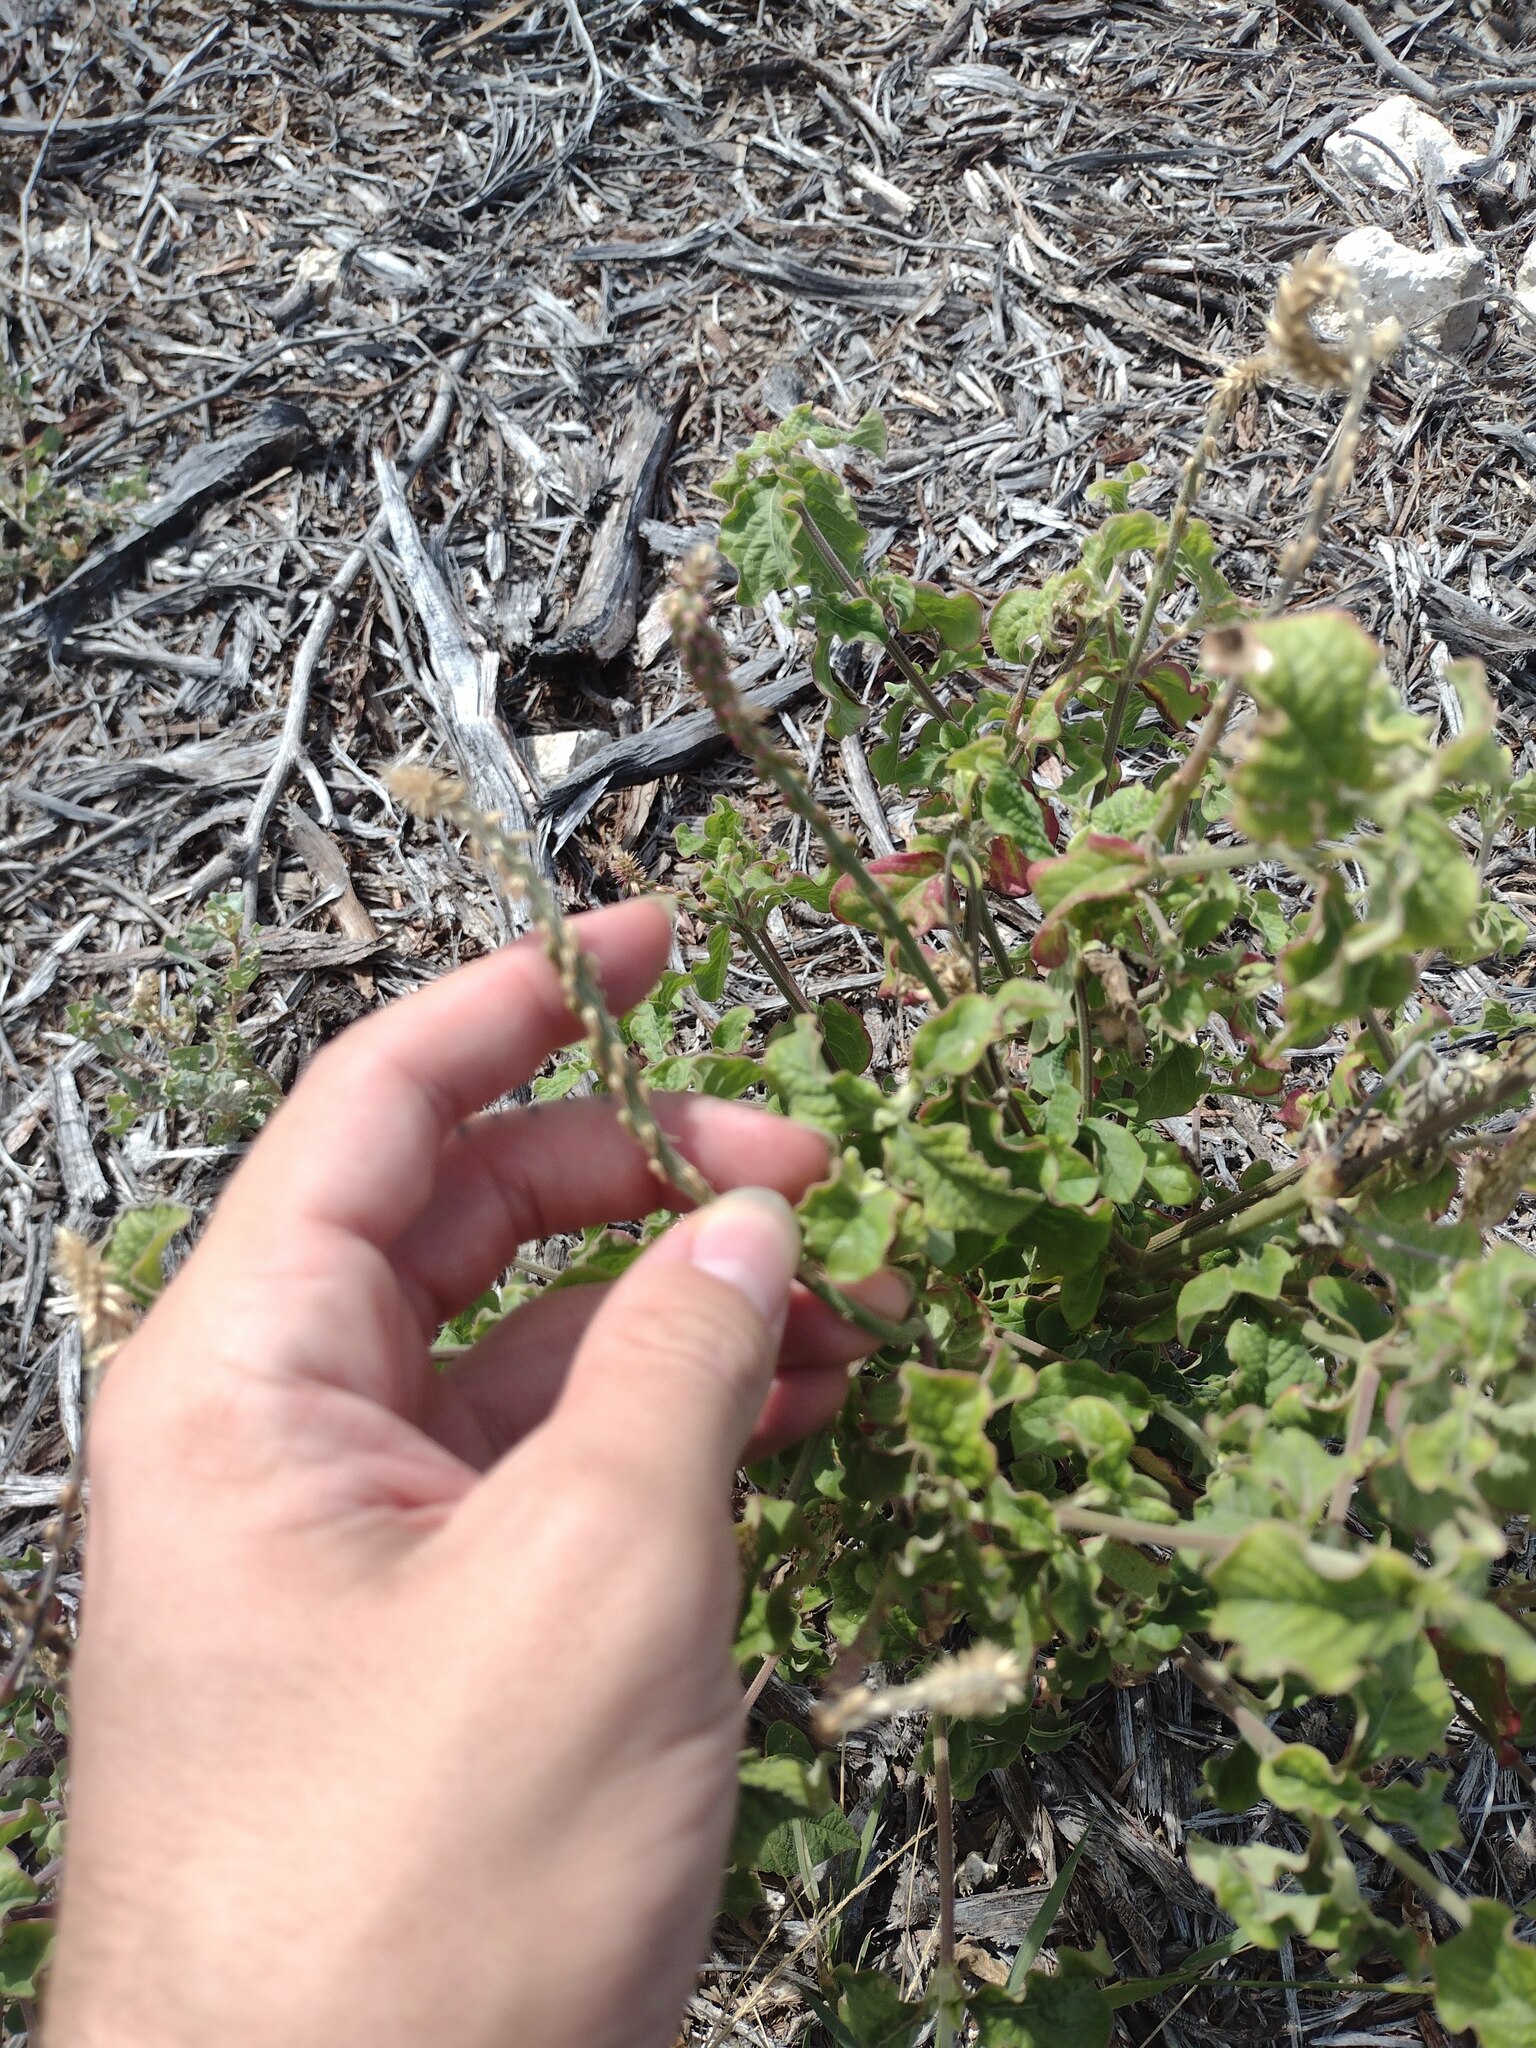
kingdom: Plantae
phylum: Tracheophyta
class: Magnoliopsida
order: Caryophyllales
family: Amaranthaceae
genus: Achyranthes
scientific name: Achyranthes aspera
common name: Devil's horsewhip
